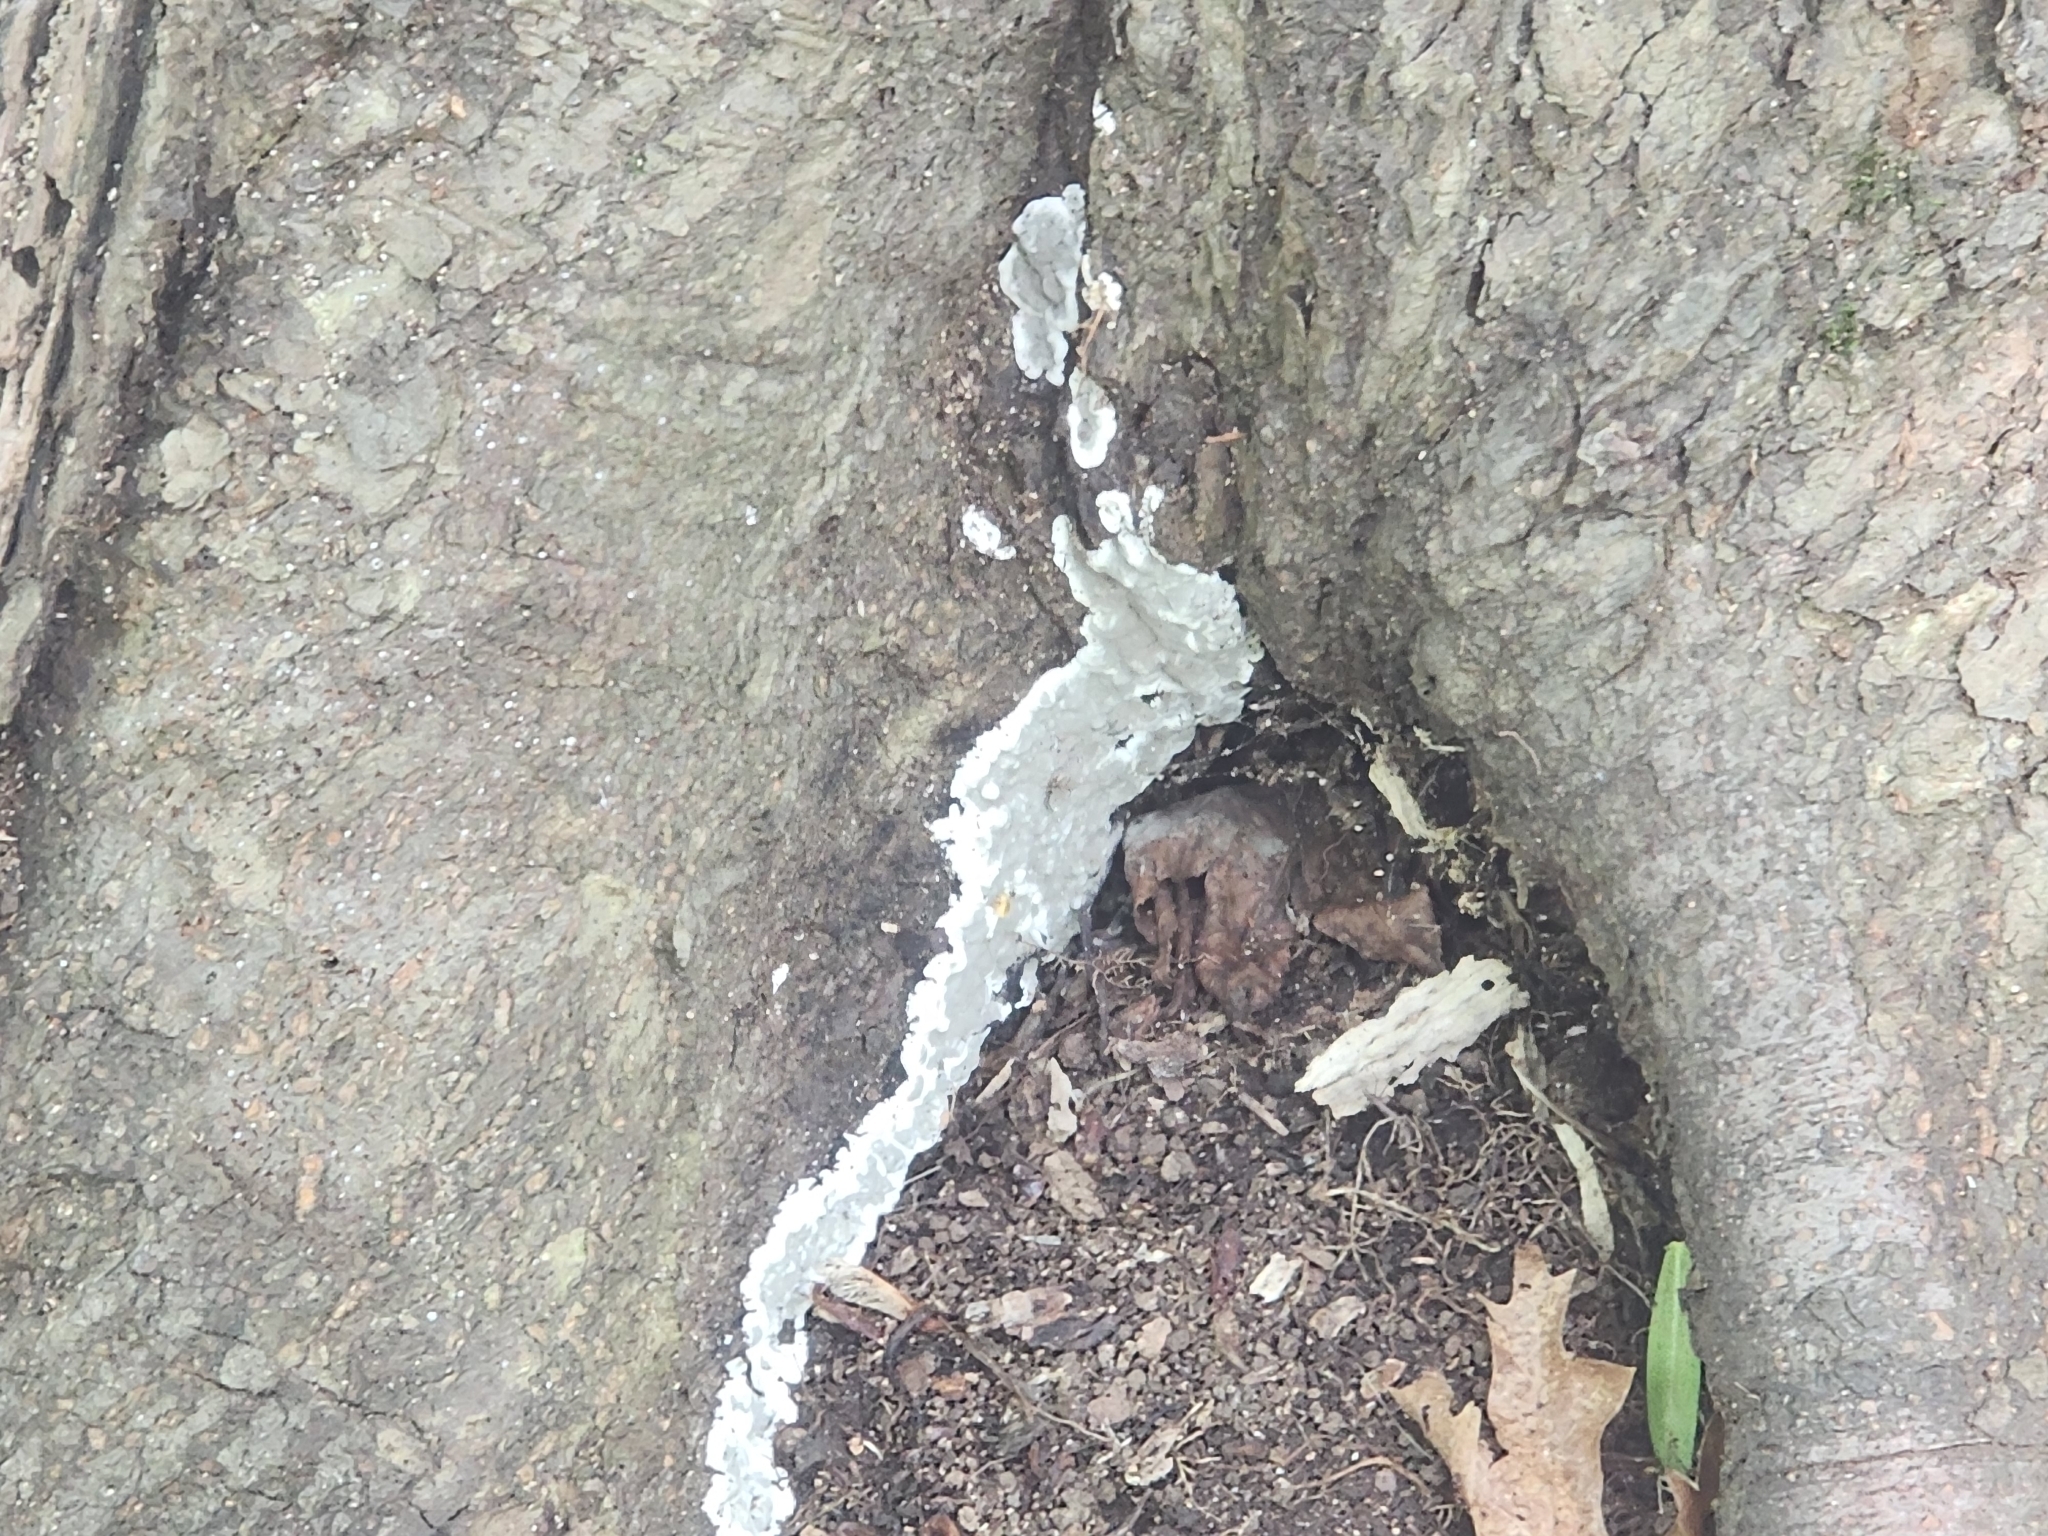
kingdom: Fungi
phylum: Ascomycota
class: Sordariomycetes
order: Xylariales
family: Xylariaceae
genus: Kretzschmaria
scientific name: Kretzschmaria deusta
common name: Brittle cinder
